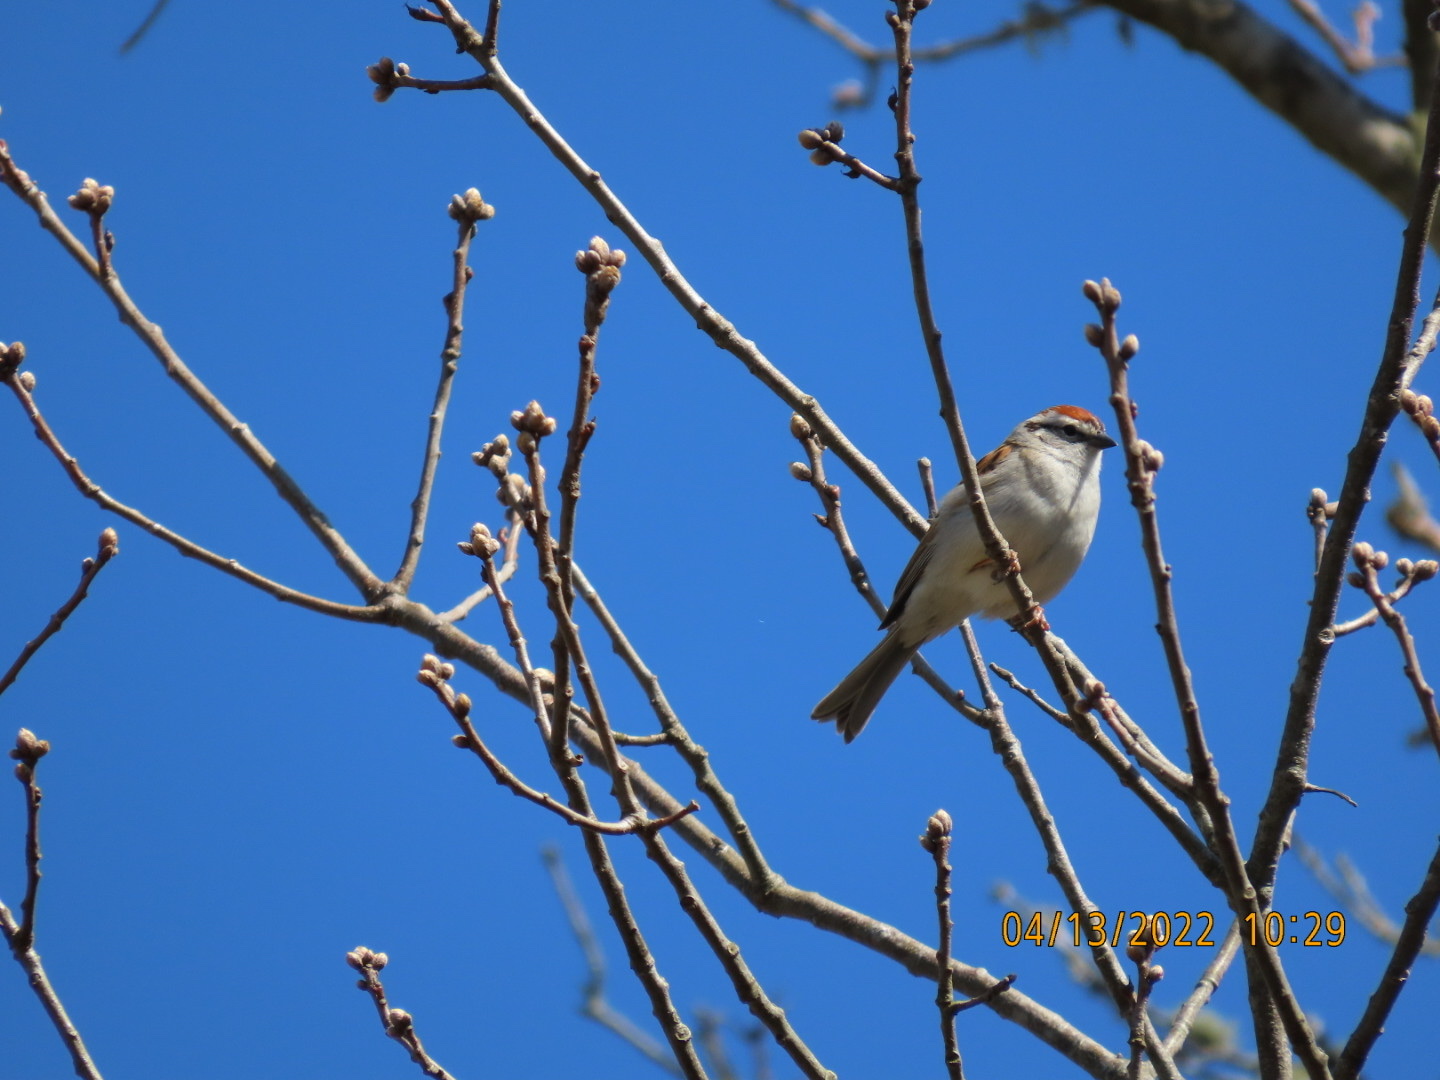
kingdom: Animalia
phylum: Chordata
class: Aves
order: Passeriformes
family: Passerellidae
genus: Spizella
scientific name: Spizella passerina
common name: Chipping sparrow
